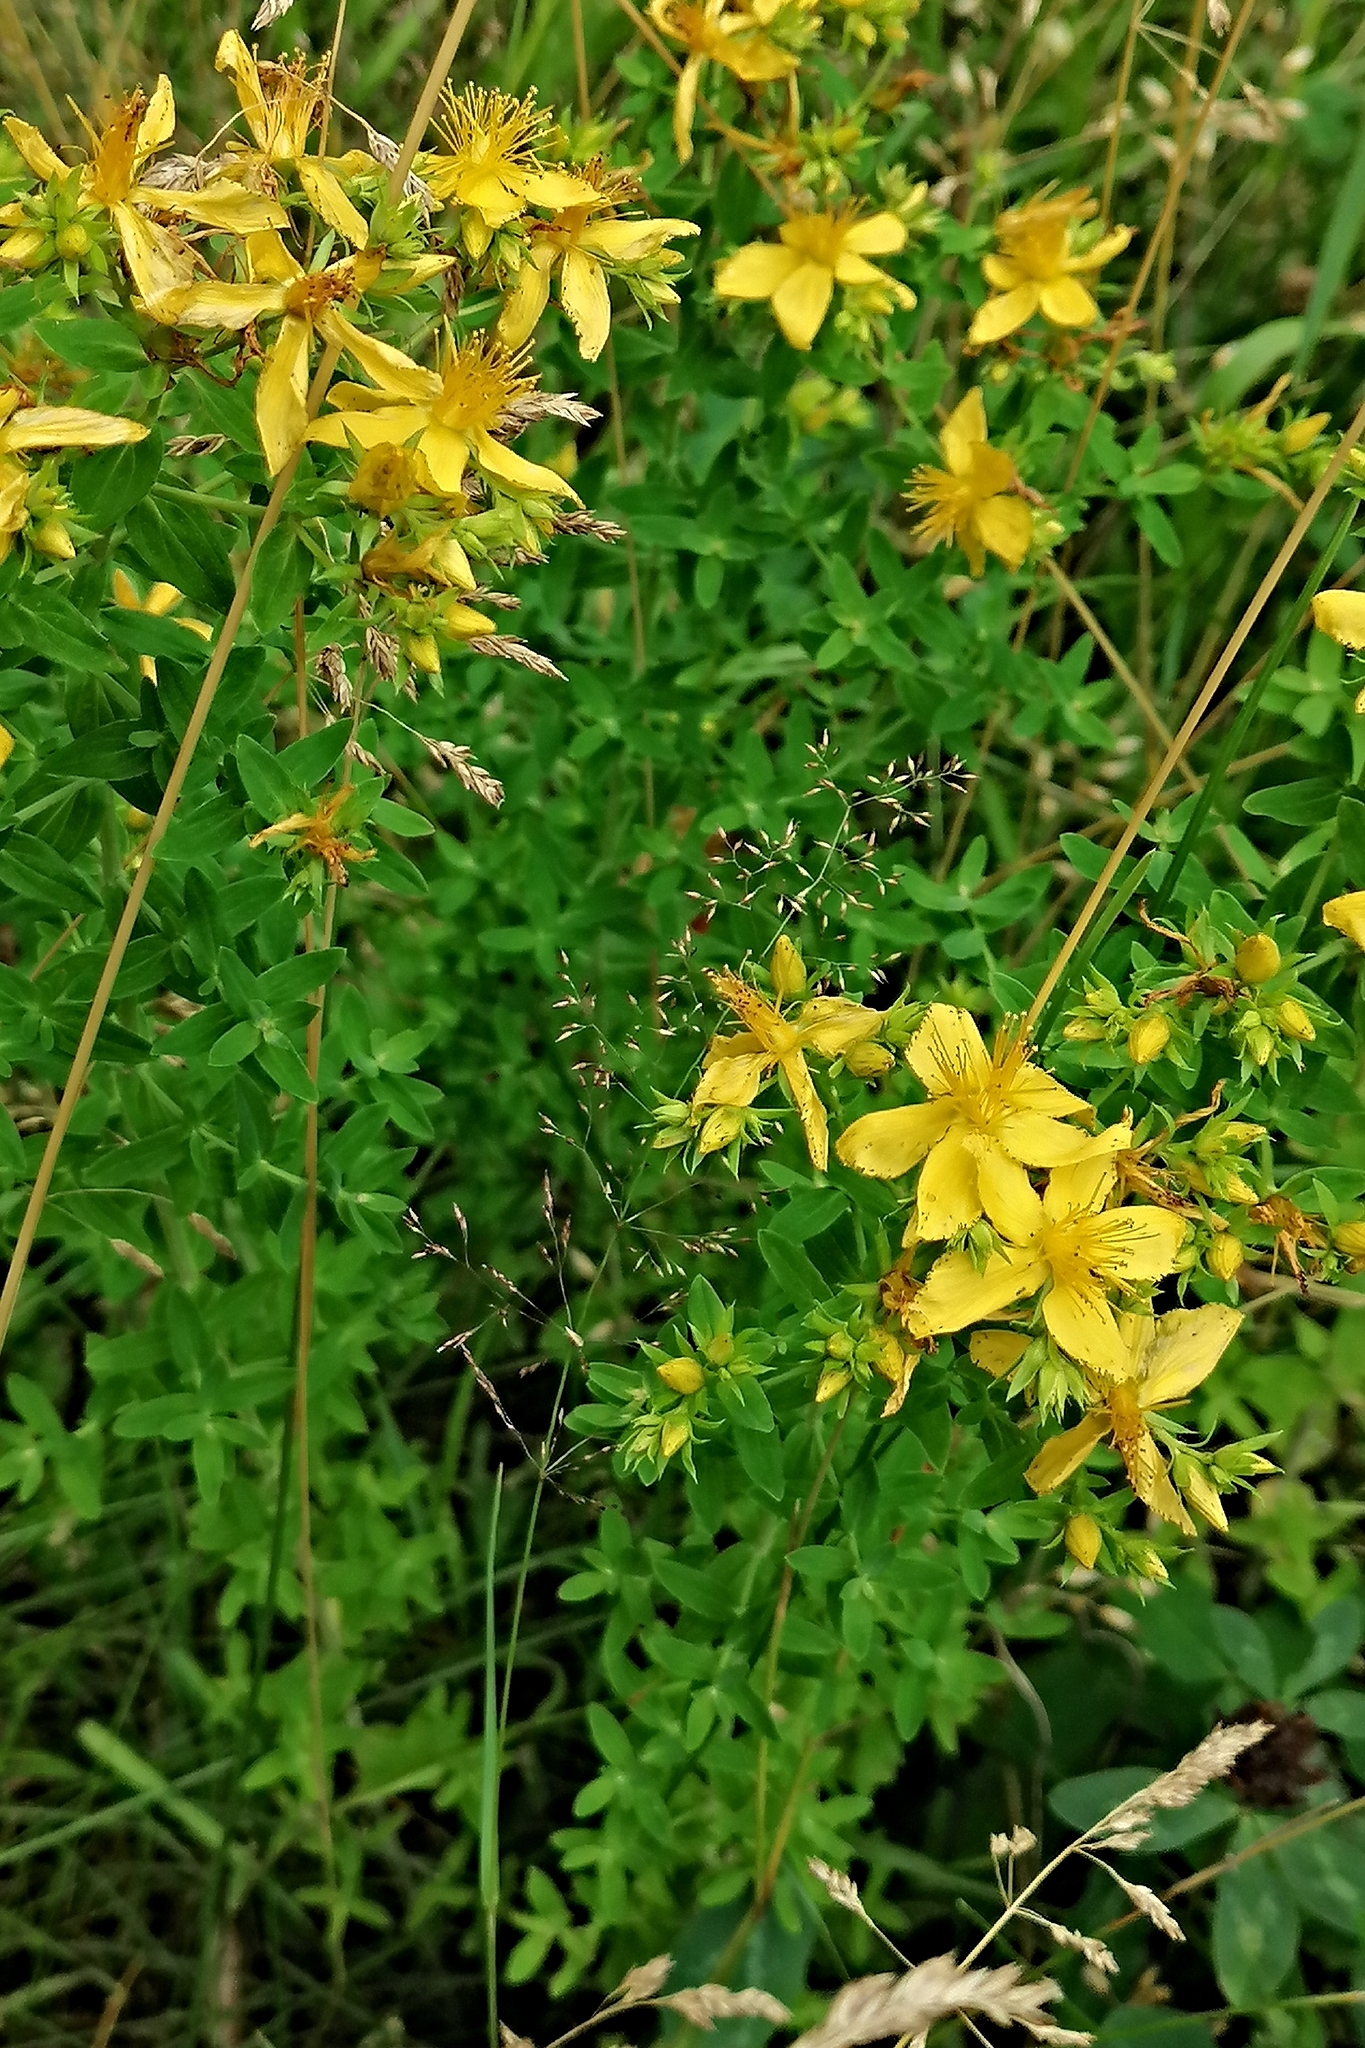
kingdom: Plantae
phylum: Tracheophyta
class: Magnoliopsida
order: Malpighiales
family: Hypericaceae
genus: Hypericum
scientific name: Hypericum perforatum
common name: Common st. johnswort
